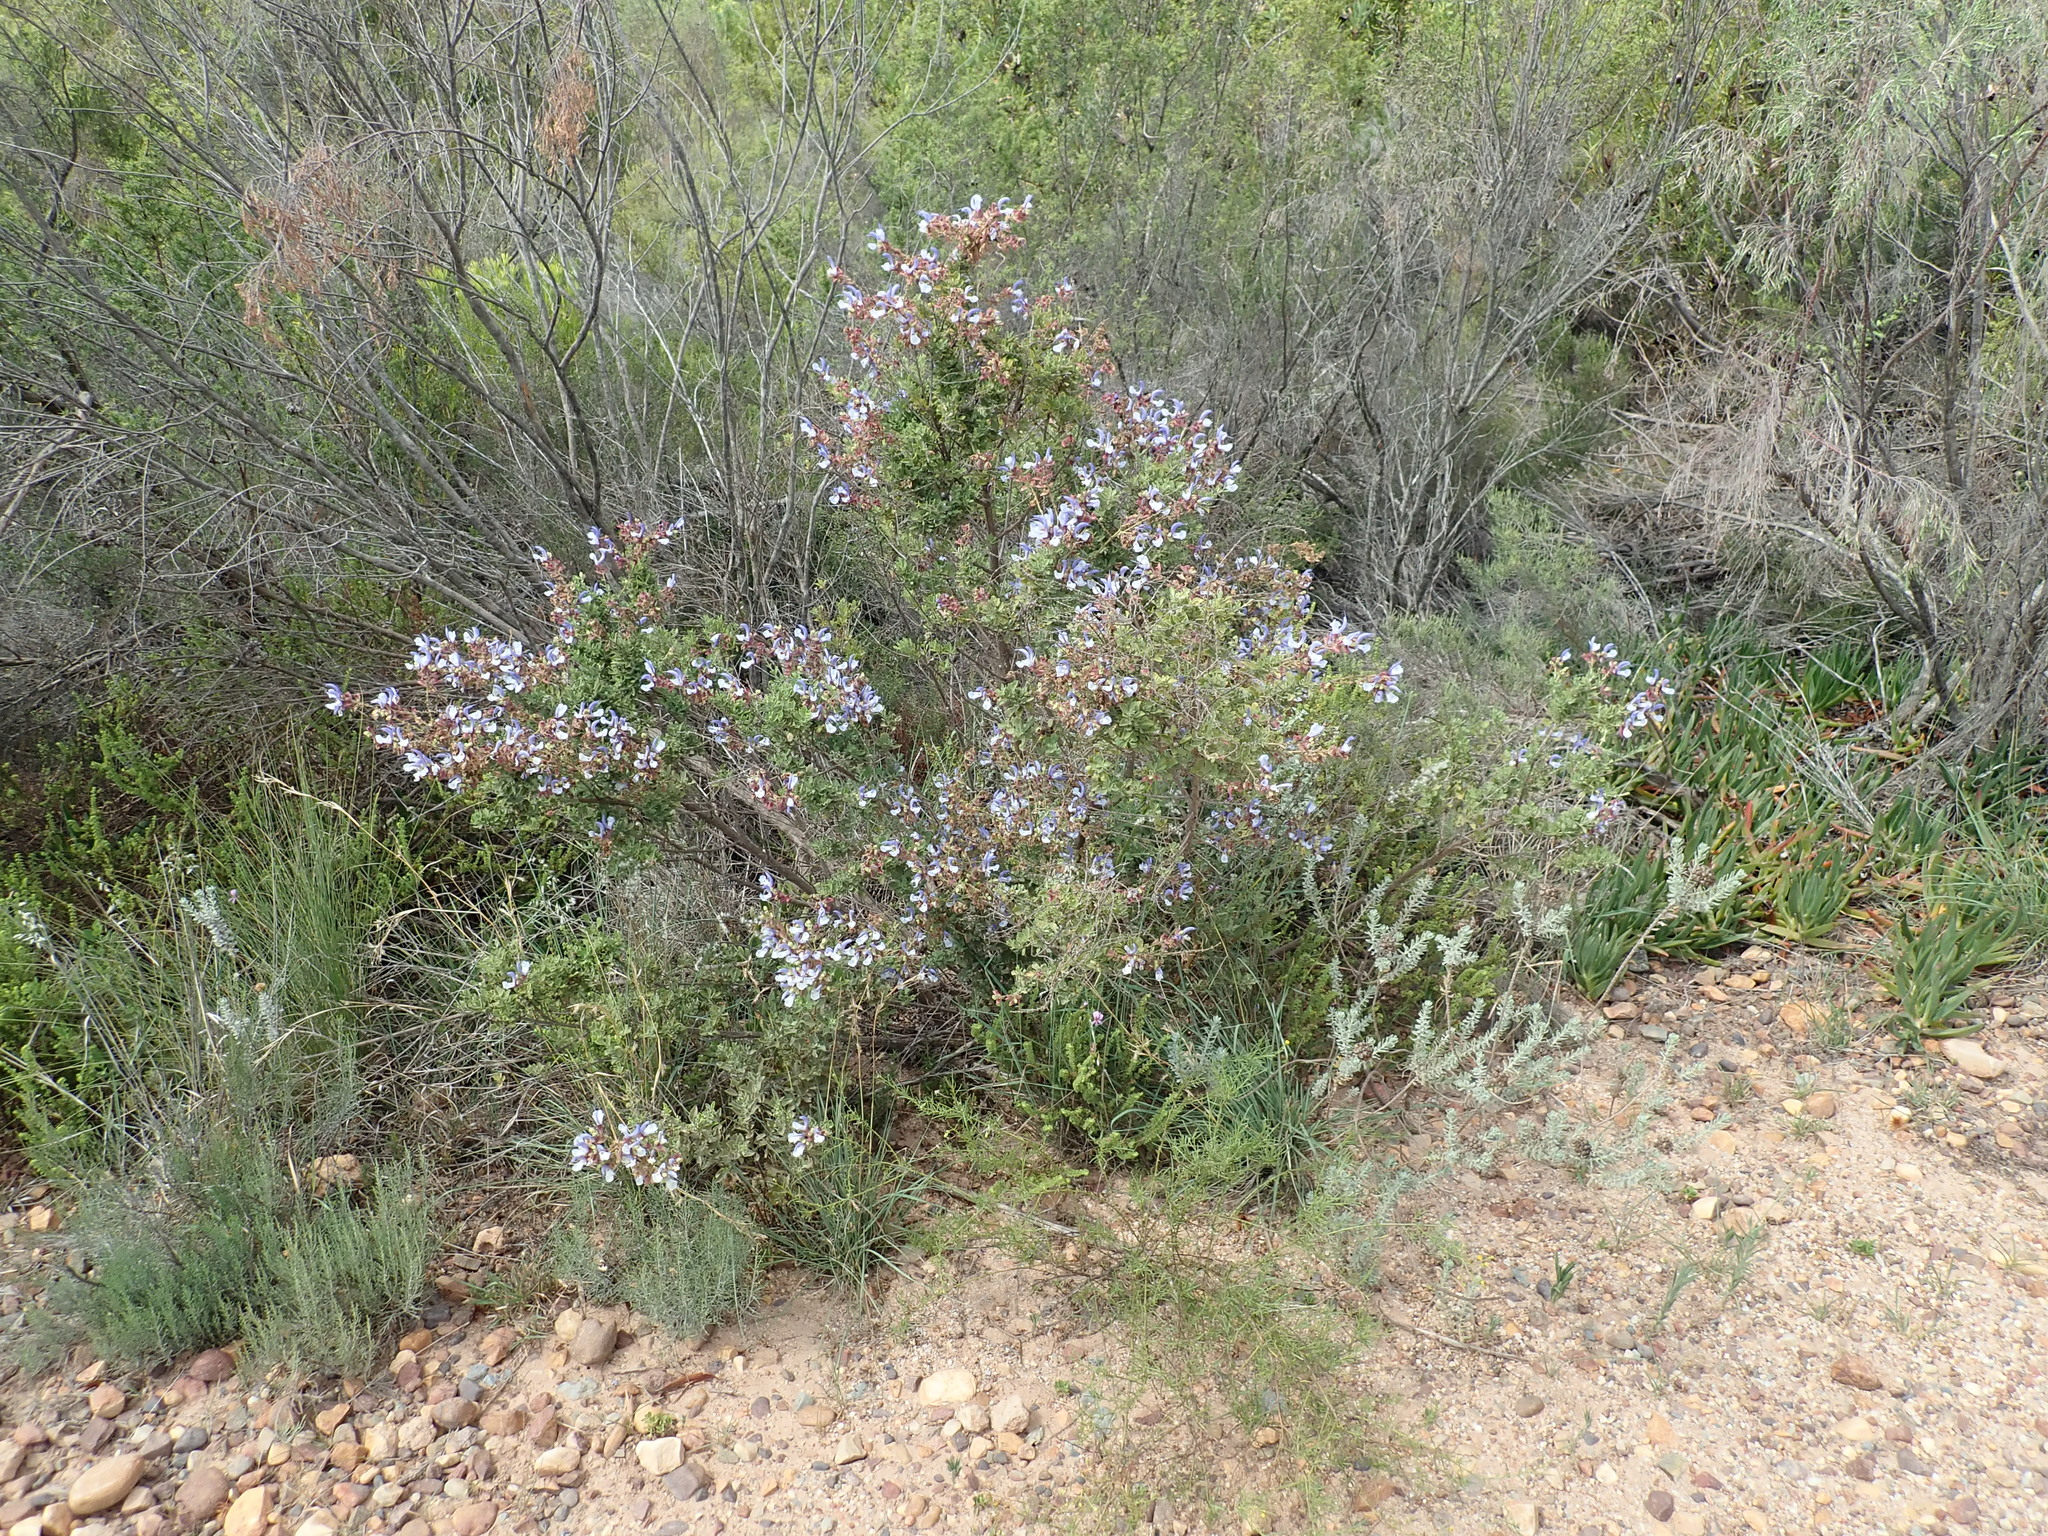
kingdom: Plantae
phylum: Tracheophyta
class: Magnoliopsida
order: Lamiales
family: Lamiaceae
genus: Salvia
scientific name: Salvia chamelaeagnea
